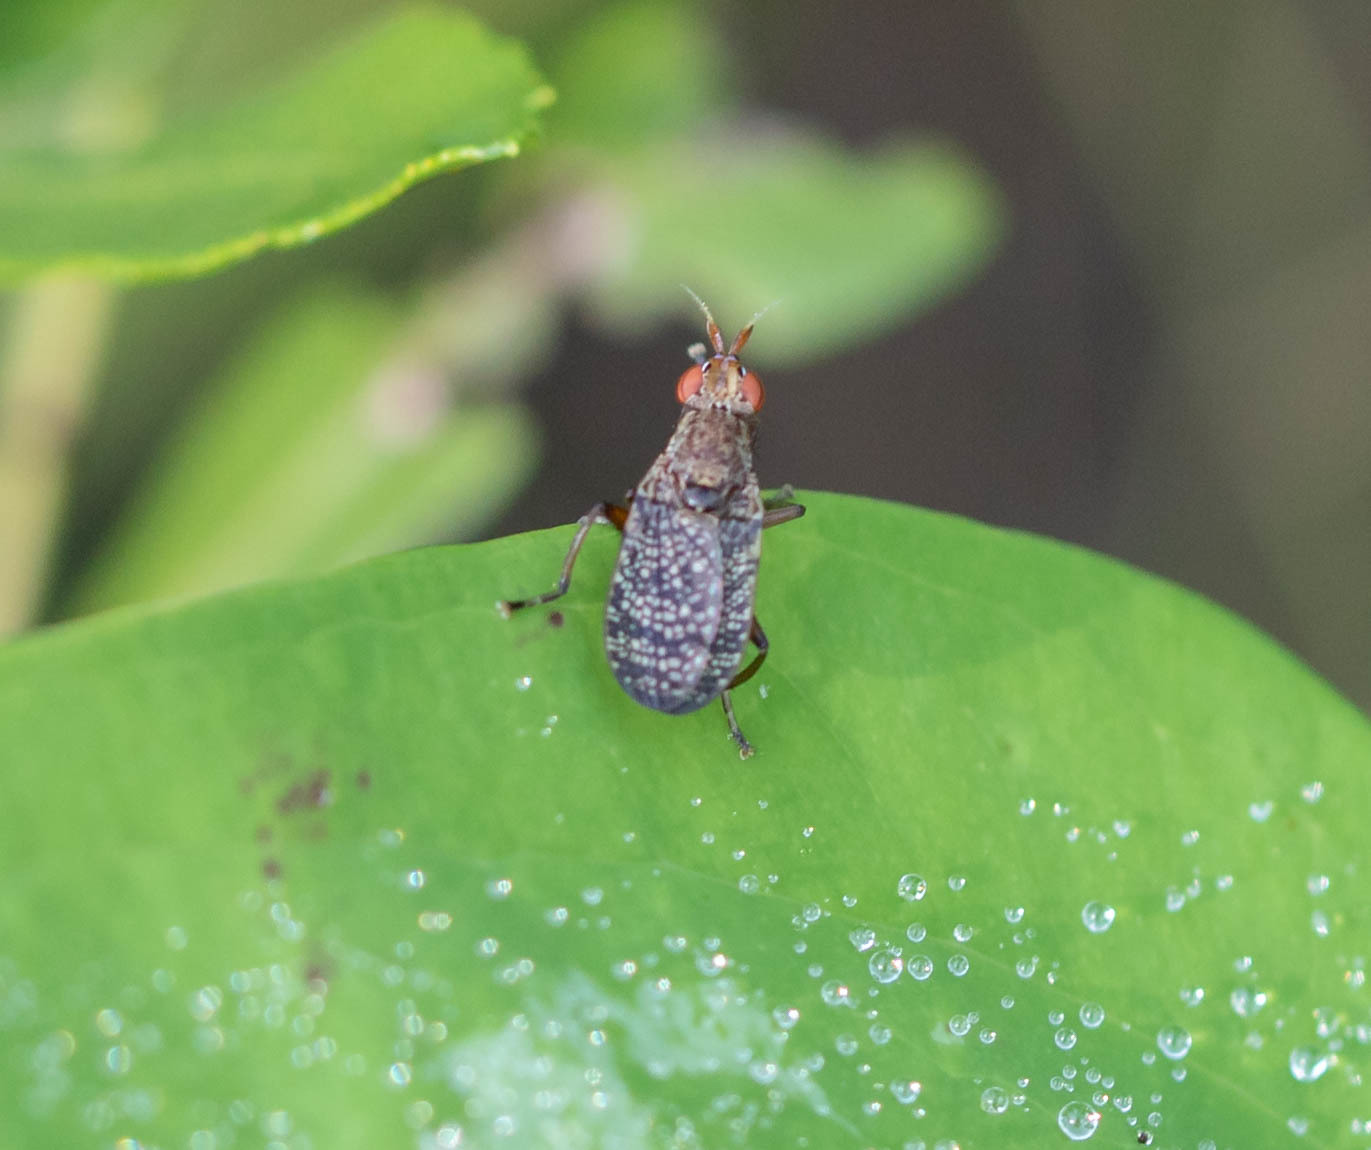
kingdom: Animalia
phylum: Arthropoda
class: Insecta
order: Diptera
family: Sciomyzidae
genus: Euthycera
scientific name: Euthycera flavescens
